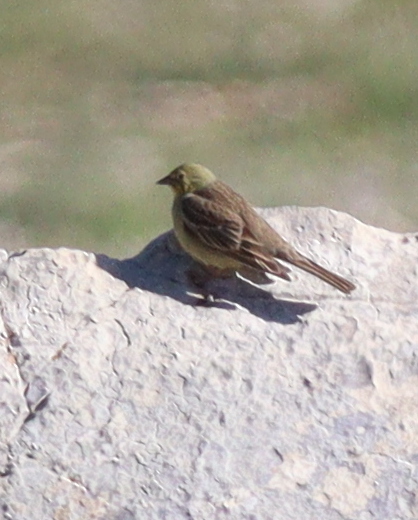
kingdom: Animalia
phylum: Chordata
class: Aves
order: Passeriformes
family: Emberizidae
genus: Emberiza
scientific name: Emberiza cineracea
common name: Cinereous bunting
